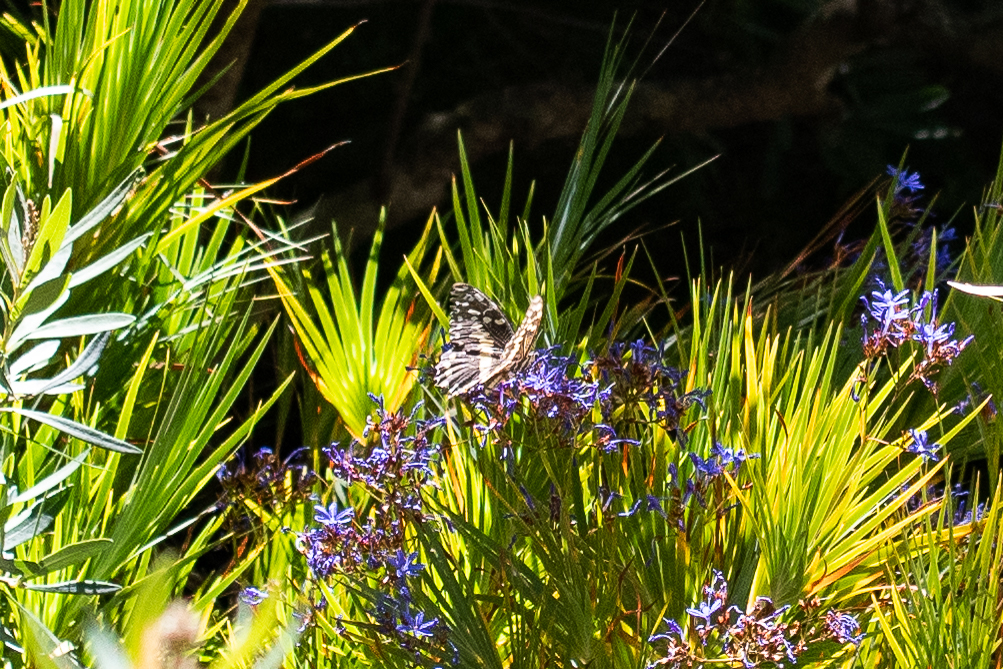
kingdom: Animalia
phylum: Arthropoda
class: Insecta
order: Lepidoptera
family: Papilionidae
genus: Papilio
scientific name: Papilio demodocus
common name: Christmas butterfly
